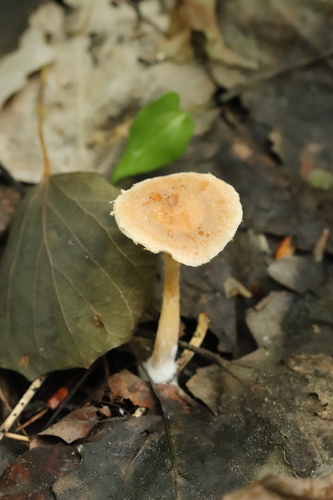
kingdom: Fungi
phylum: Basidiomycota
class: Agaricomycetes
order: Agaricales
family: Tubariaceae
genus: Tubaria
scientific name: Tubaria furfuracea
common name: Scurfy twiglet
